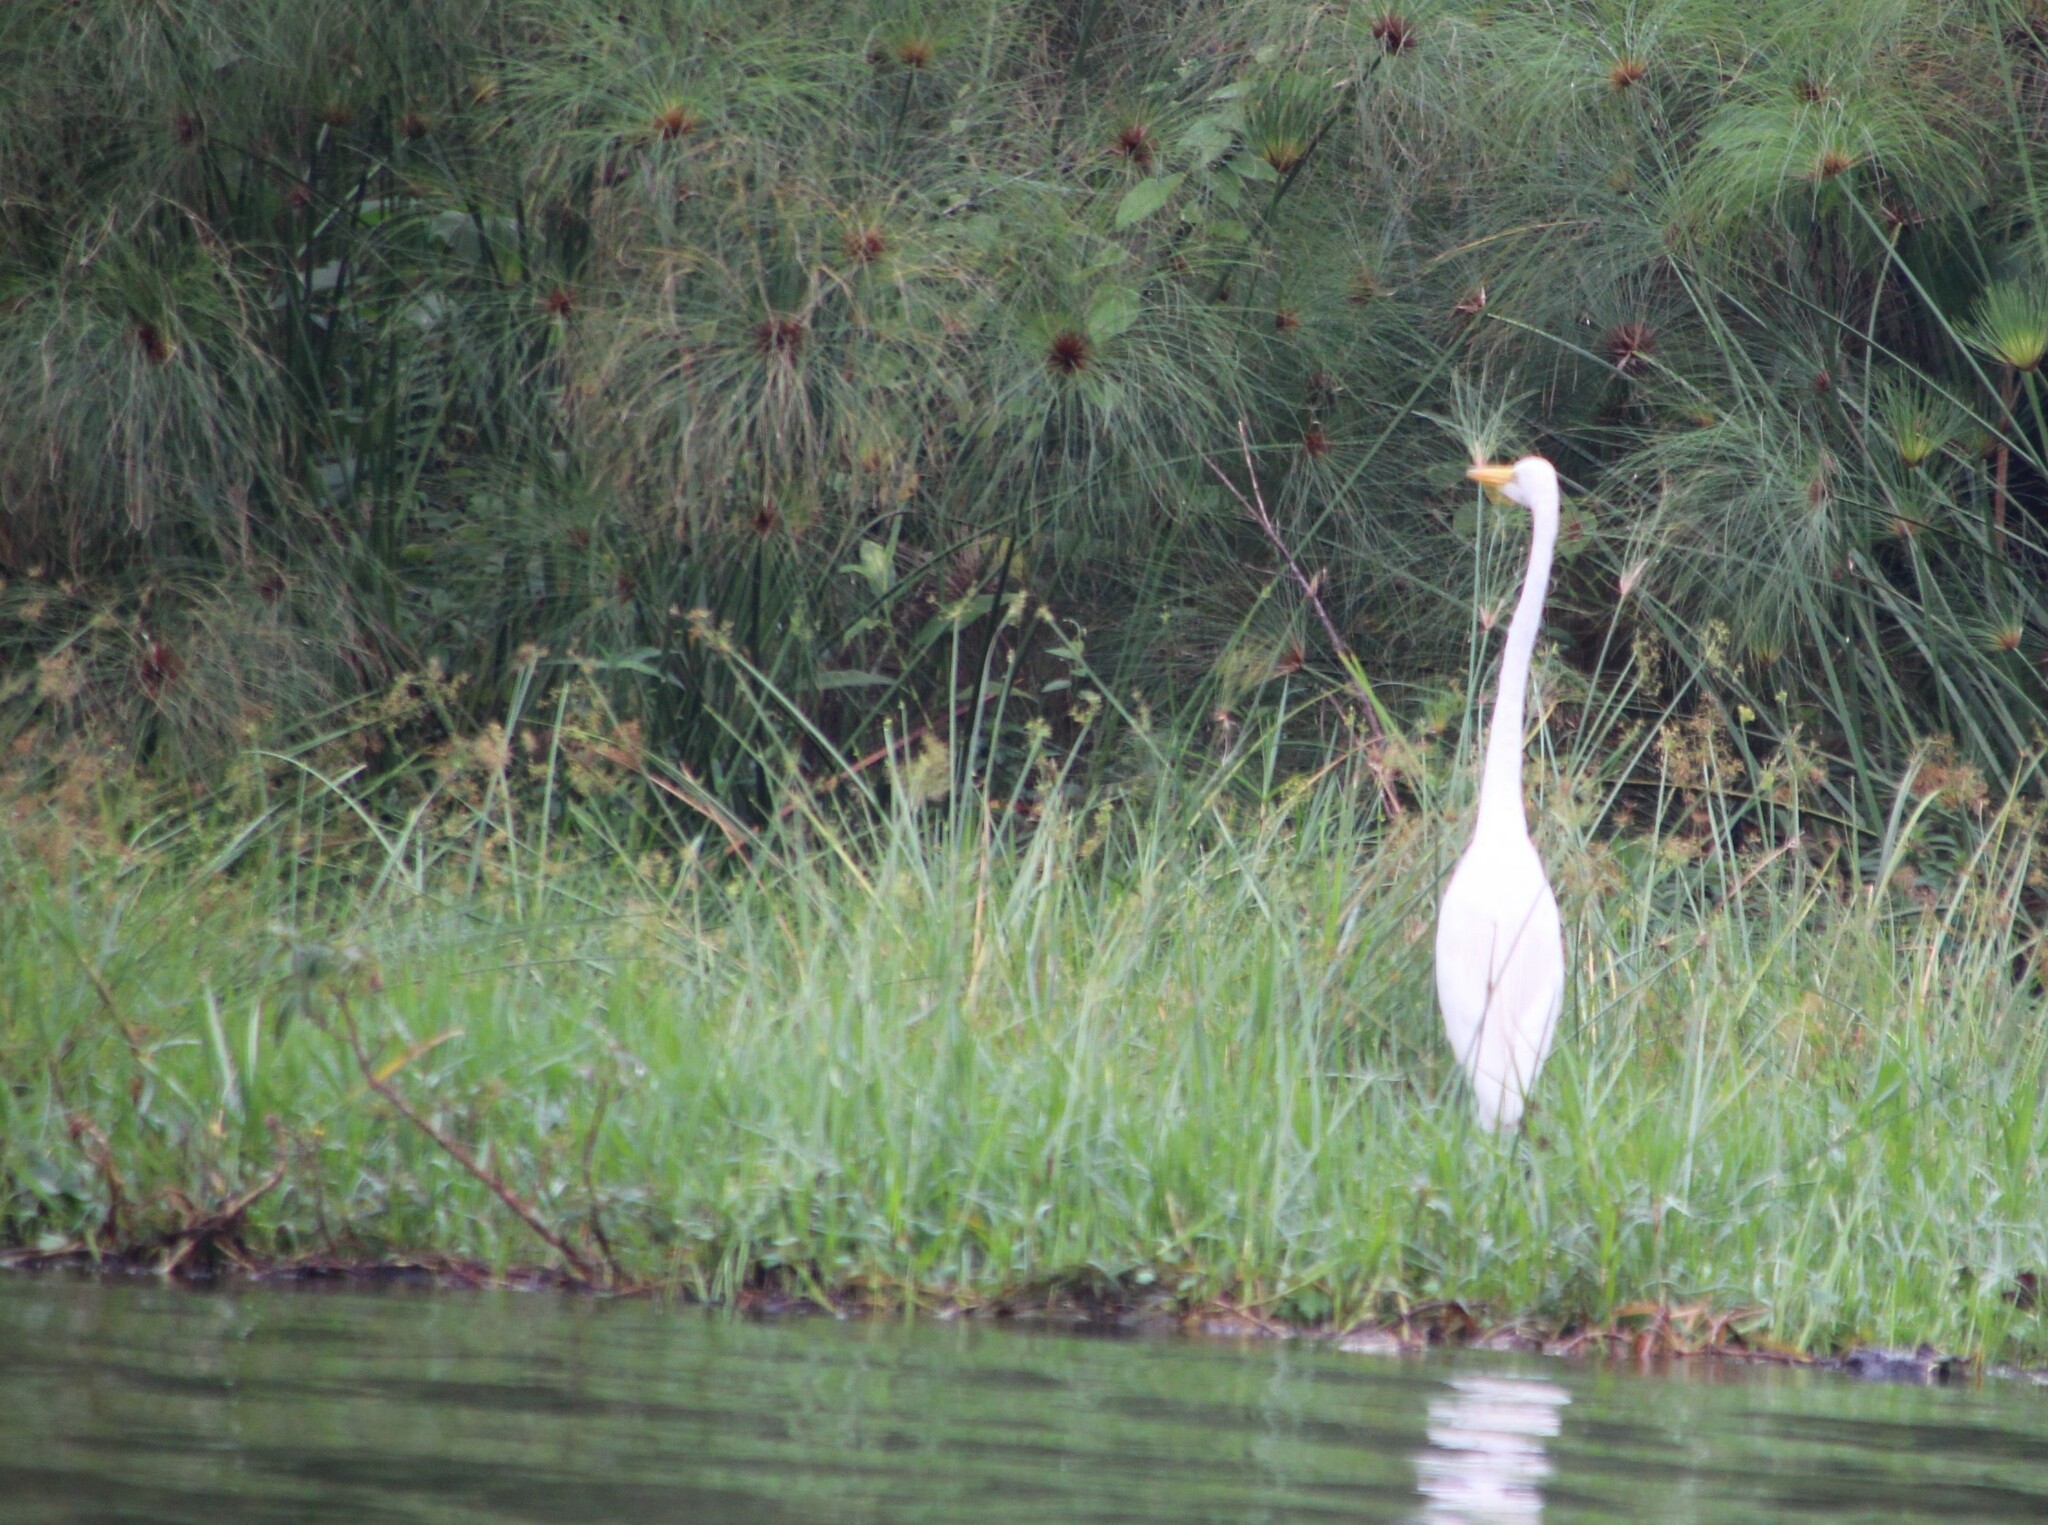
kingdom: Animalia
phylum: Chordata
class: Aves
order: Pelecaniformes
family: Ardeidae
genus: Ardea
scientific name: Ardea alba
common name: Great egret
